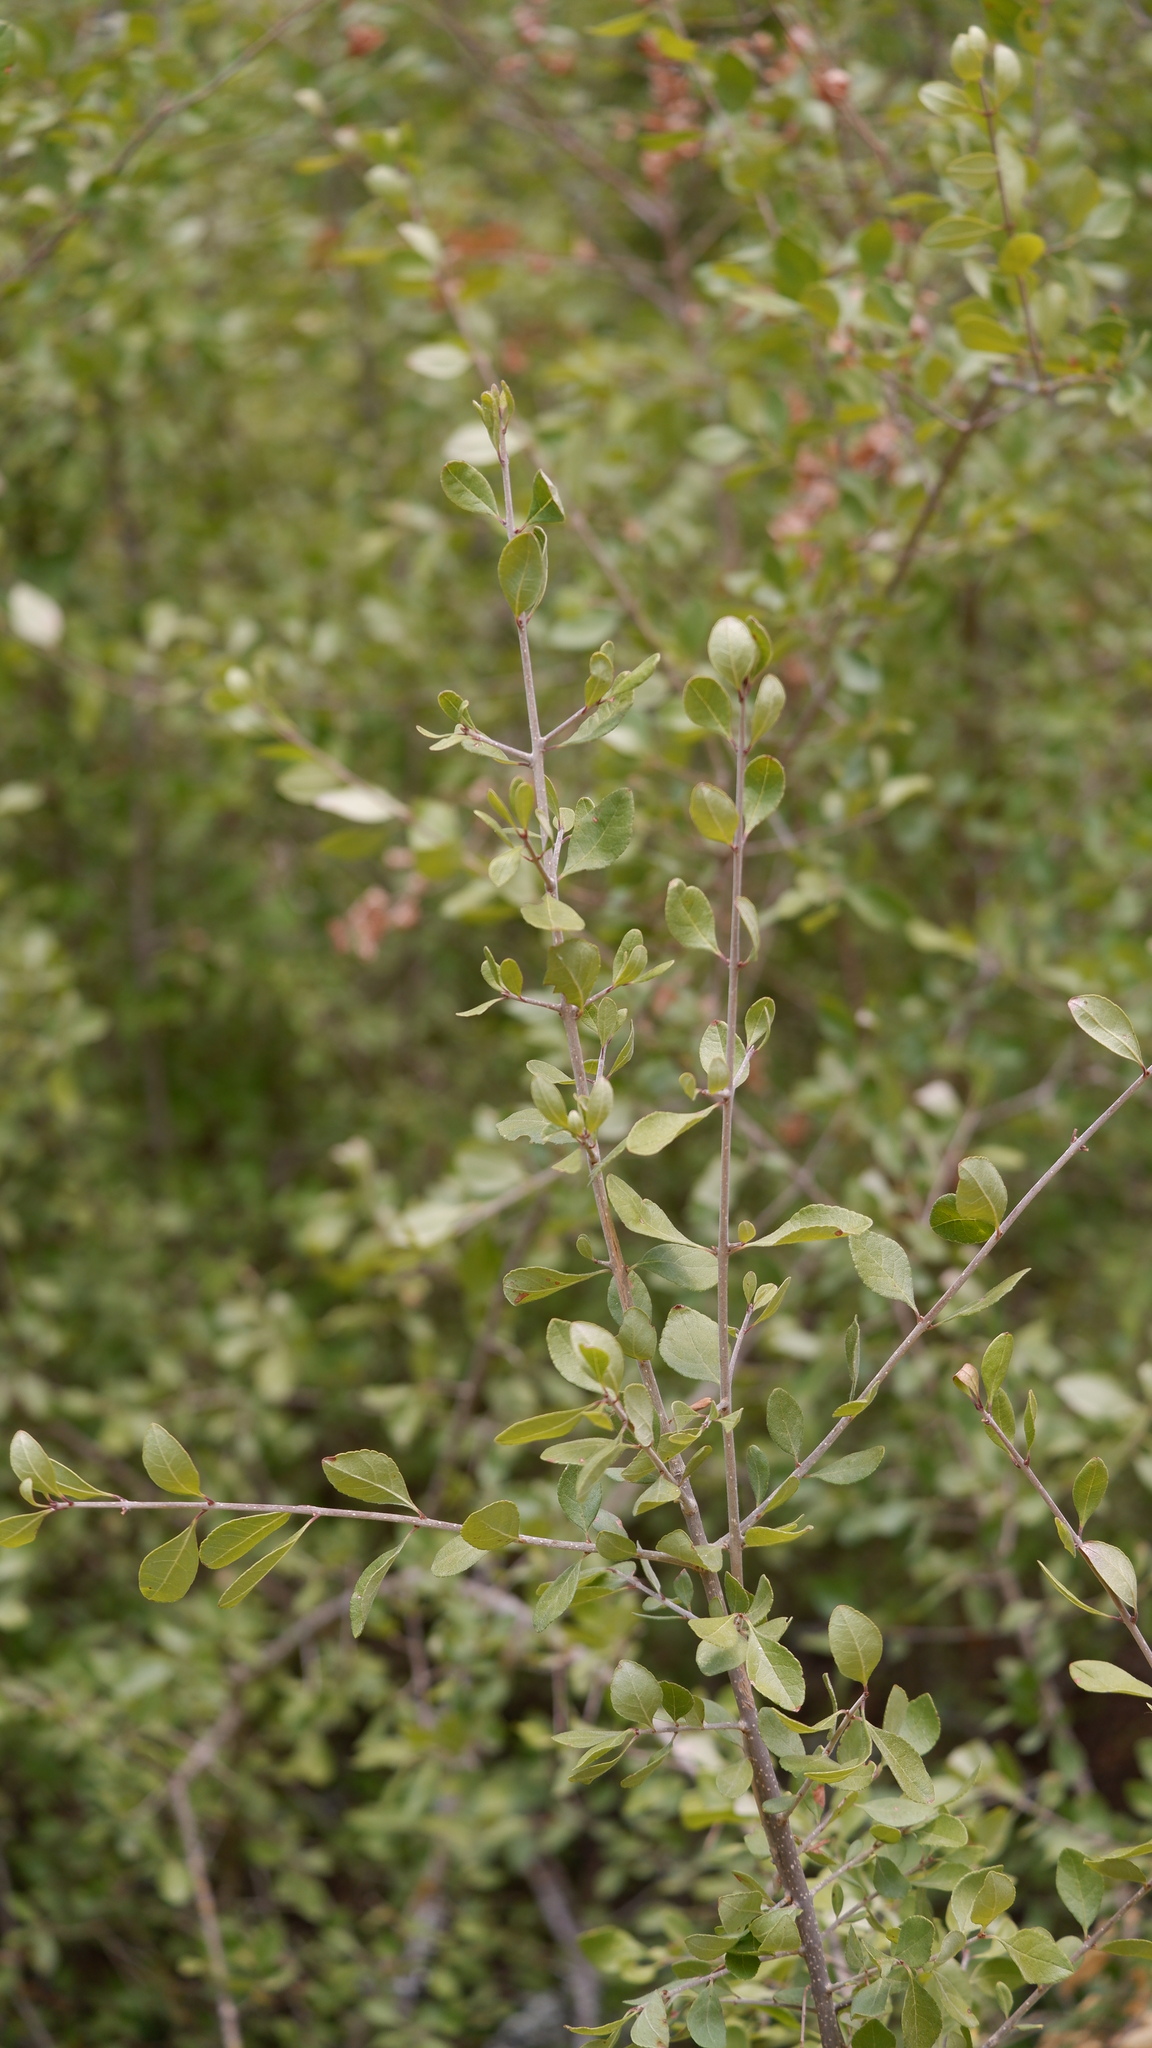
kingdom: Plantae
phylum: Tracheophyta
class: Magnoliopsida
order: Lamiales
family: Oleaceae
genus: Forestiera
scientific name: Forestiera pubescens
